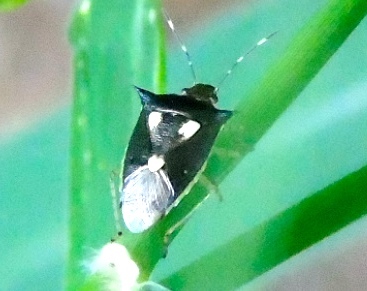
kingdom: Animalia
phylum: Arthropoda
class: Insecta
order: Hemiptera
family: Pentatomidae
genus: Mormidea
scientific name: Mormidea
